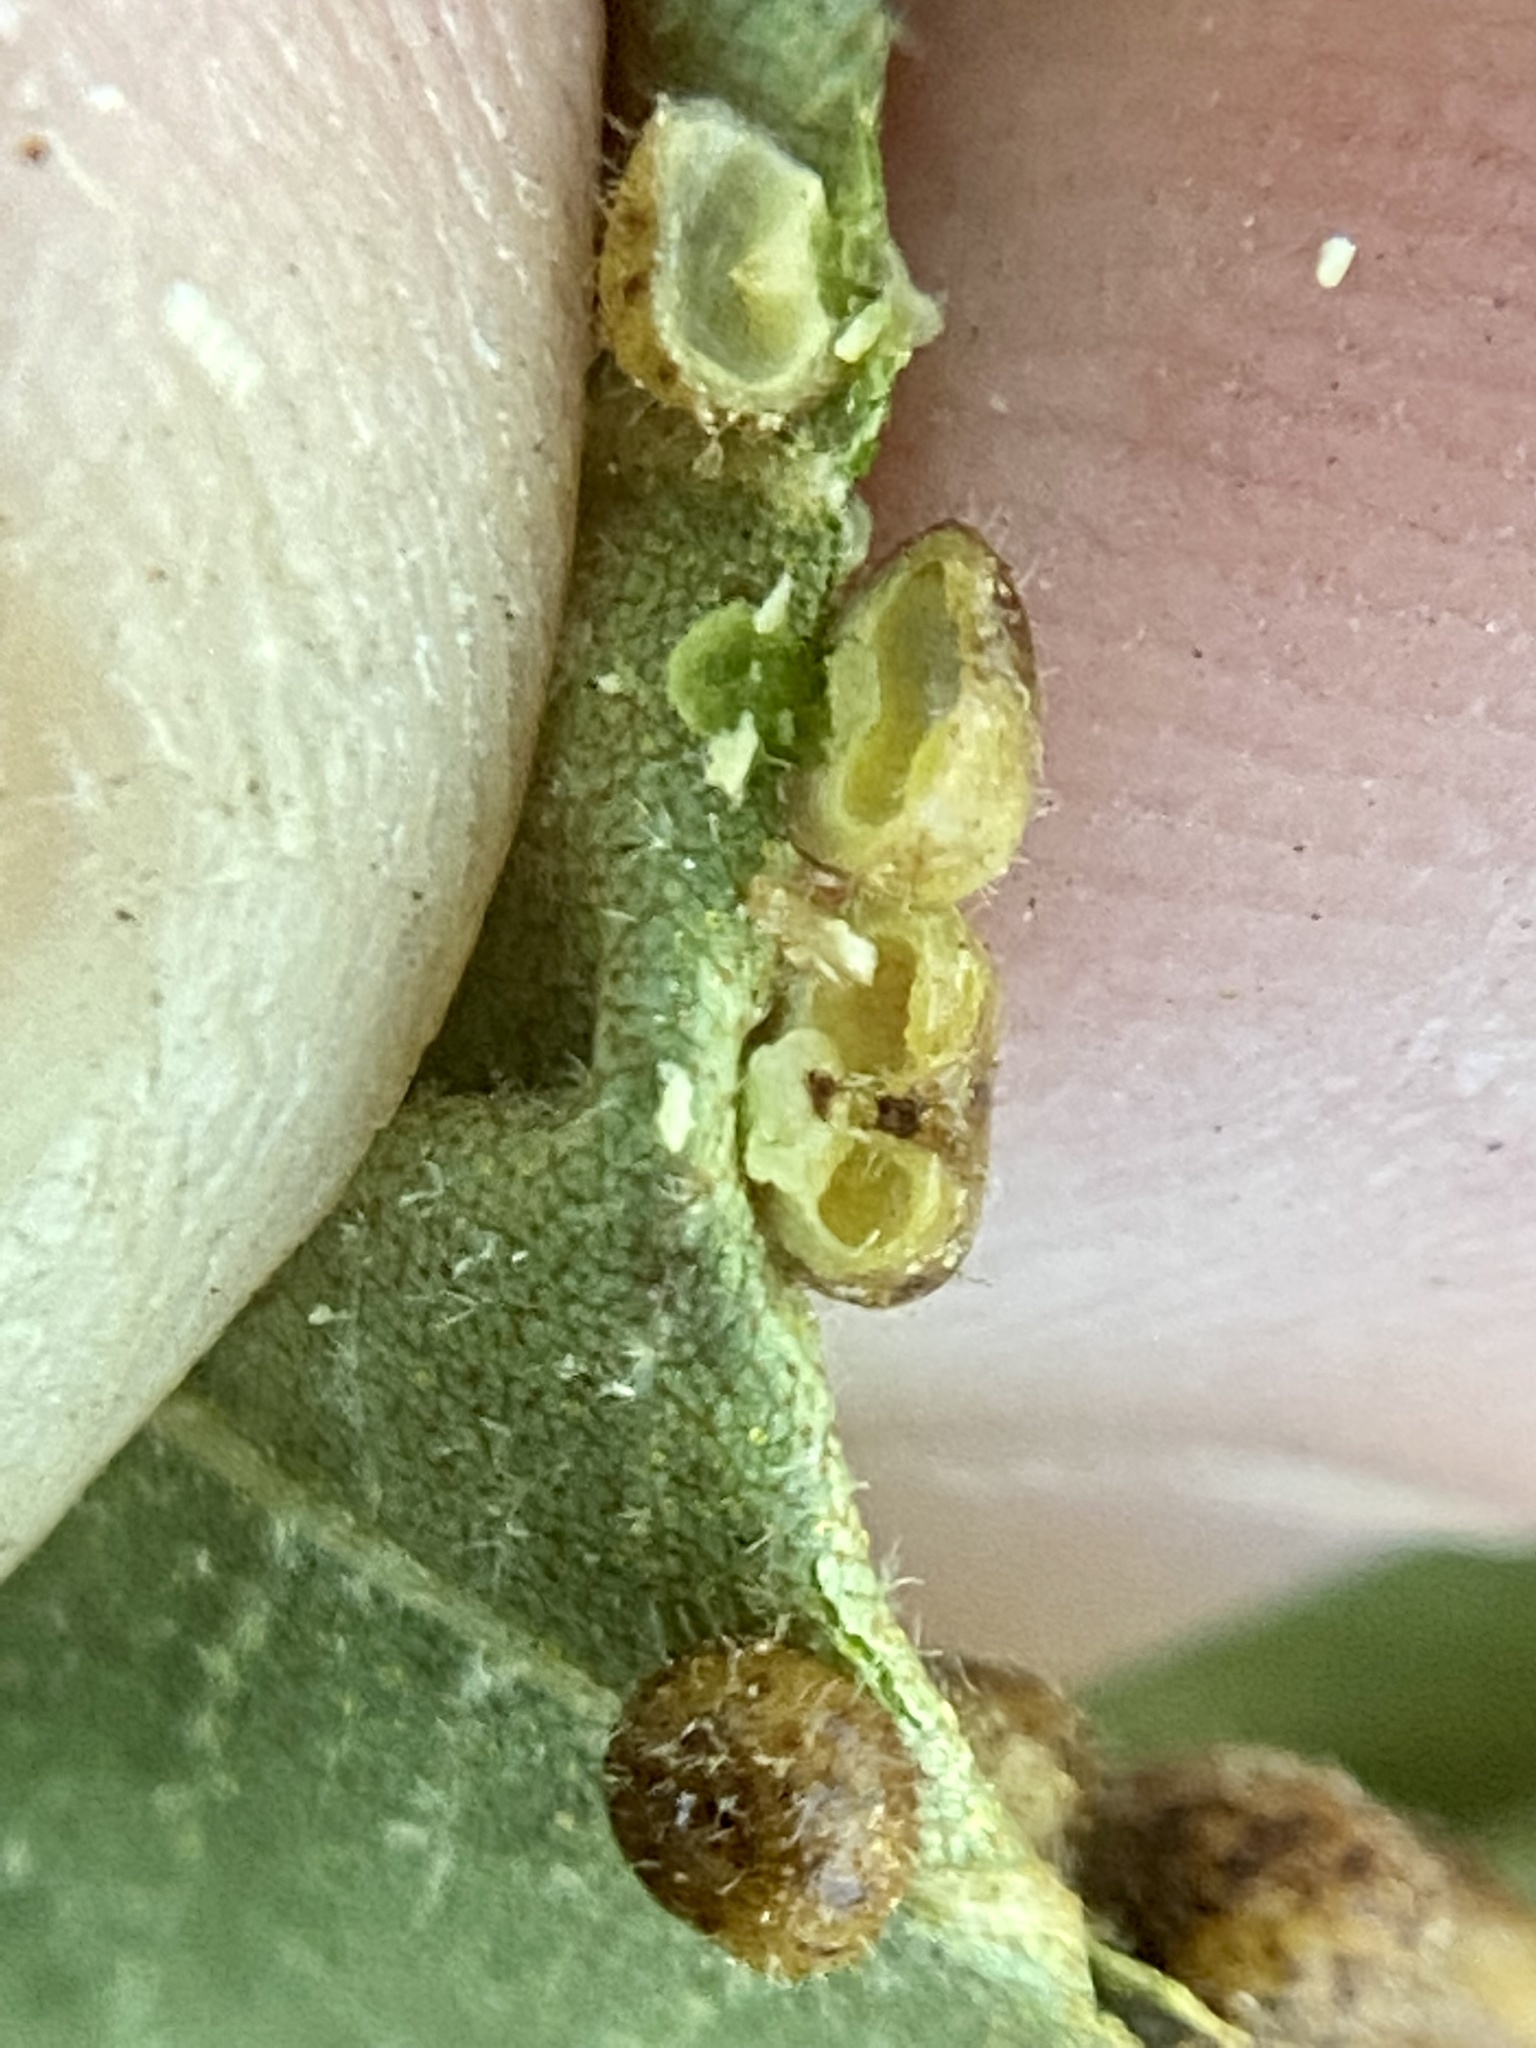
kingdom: Animalia
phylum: Arthropoda
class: Insecta
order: Diptera
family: Cecidomyiidae
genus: Caryomyia
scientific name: Caryomyia thompsoni
